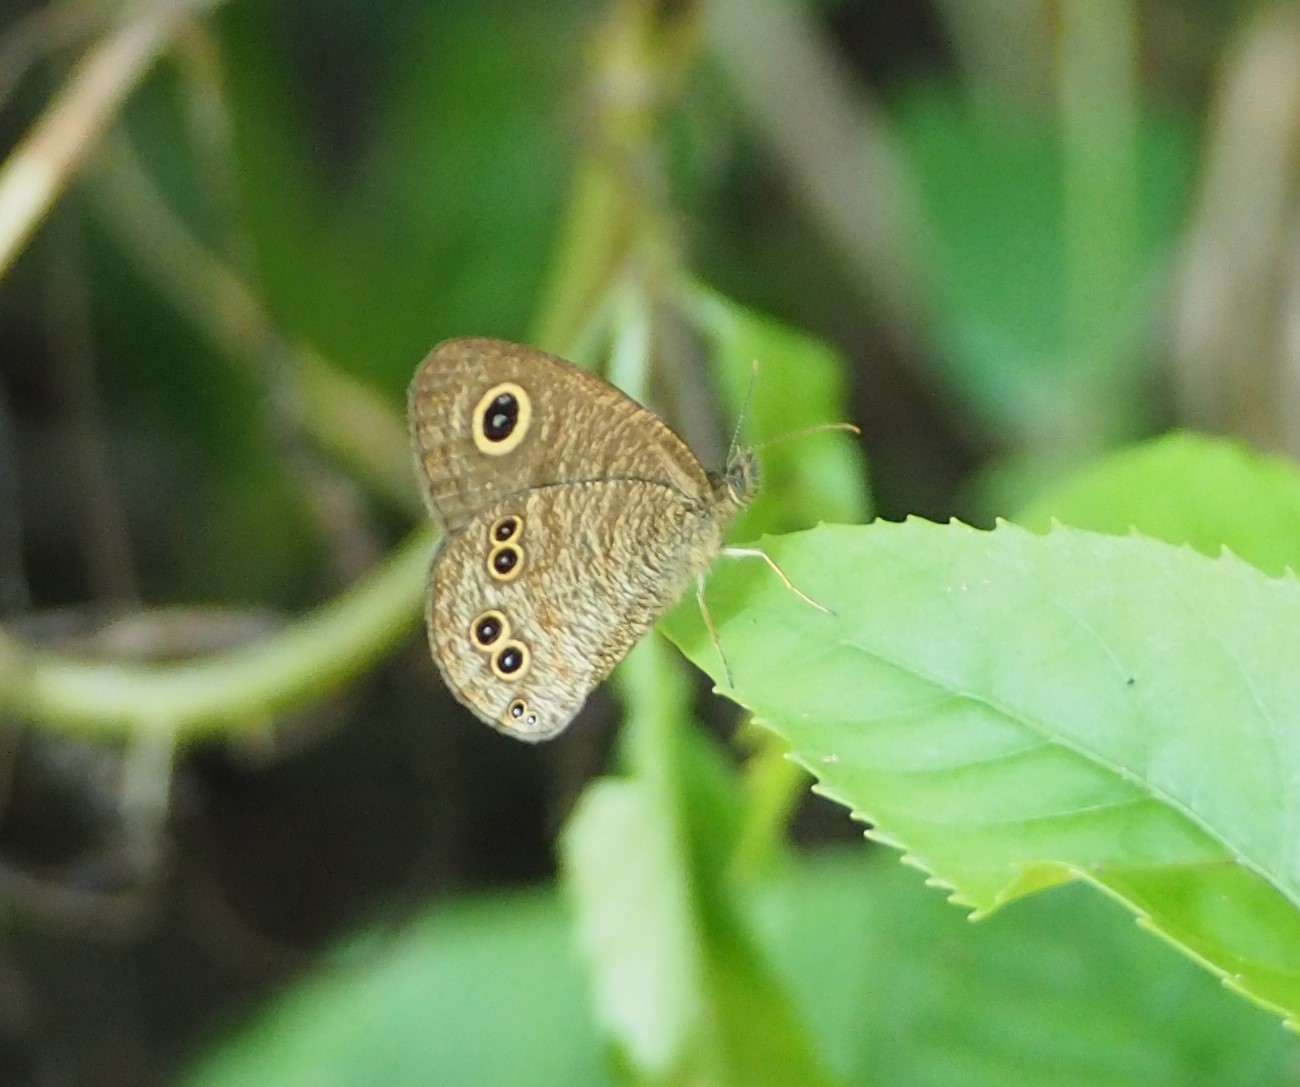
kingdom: Animalia
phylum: Arthropoda
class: Insecta
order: Lepidoptera
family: Nymphalidae
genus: Ypthima
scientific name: Ypthima baldus
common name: Common five-ring
